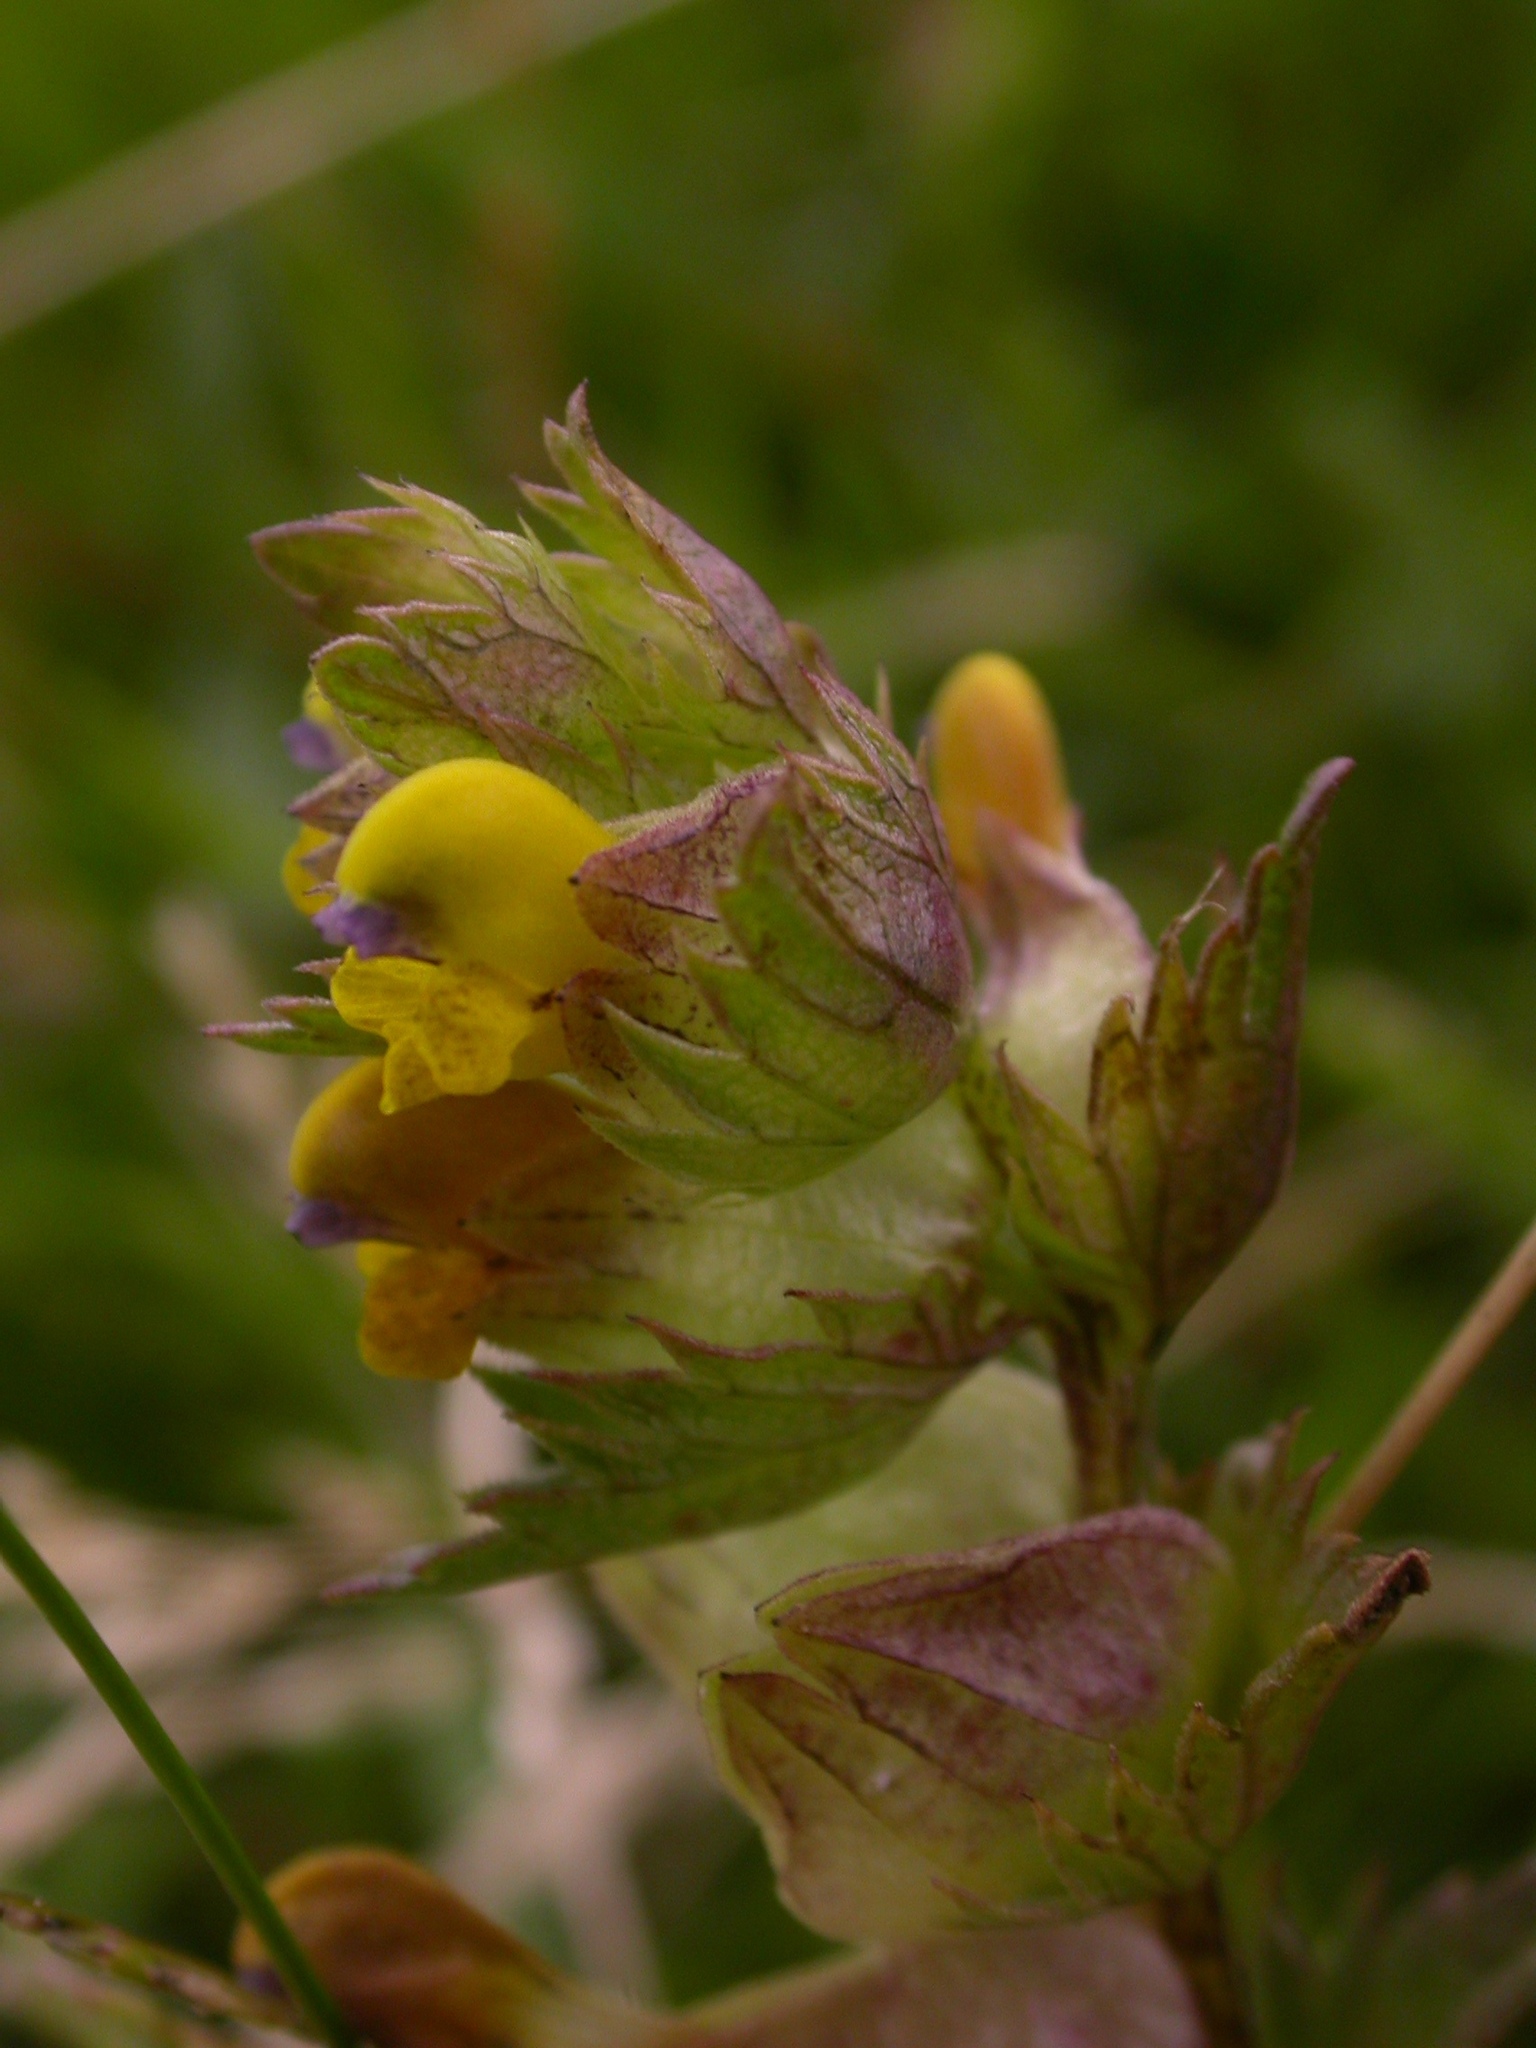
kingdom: Plantae
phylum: Tracheophyta
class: Magnoliopsida
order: Lamiales
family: Orobanchaceae
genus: Rhinanthus
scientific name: Rhinanthus minor
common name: Yellow-rattle
